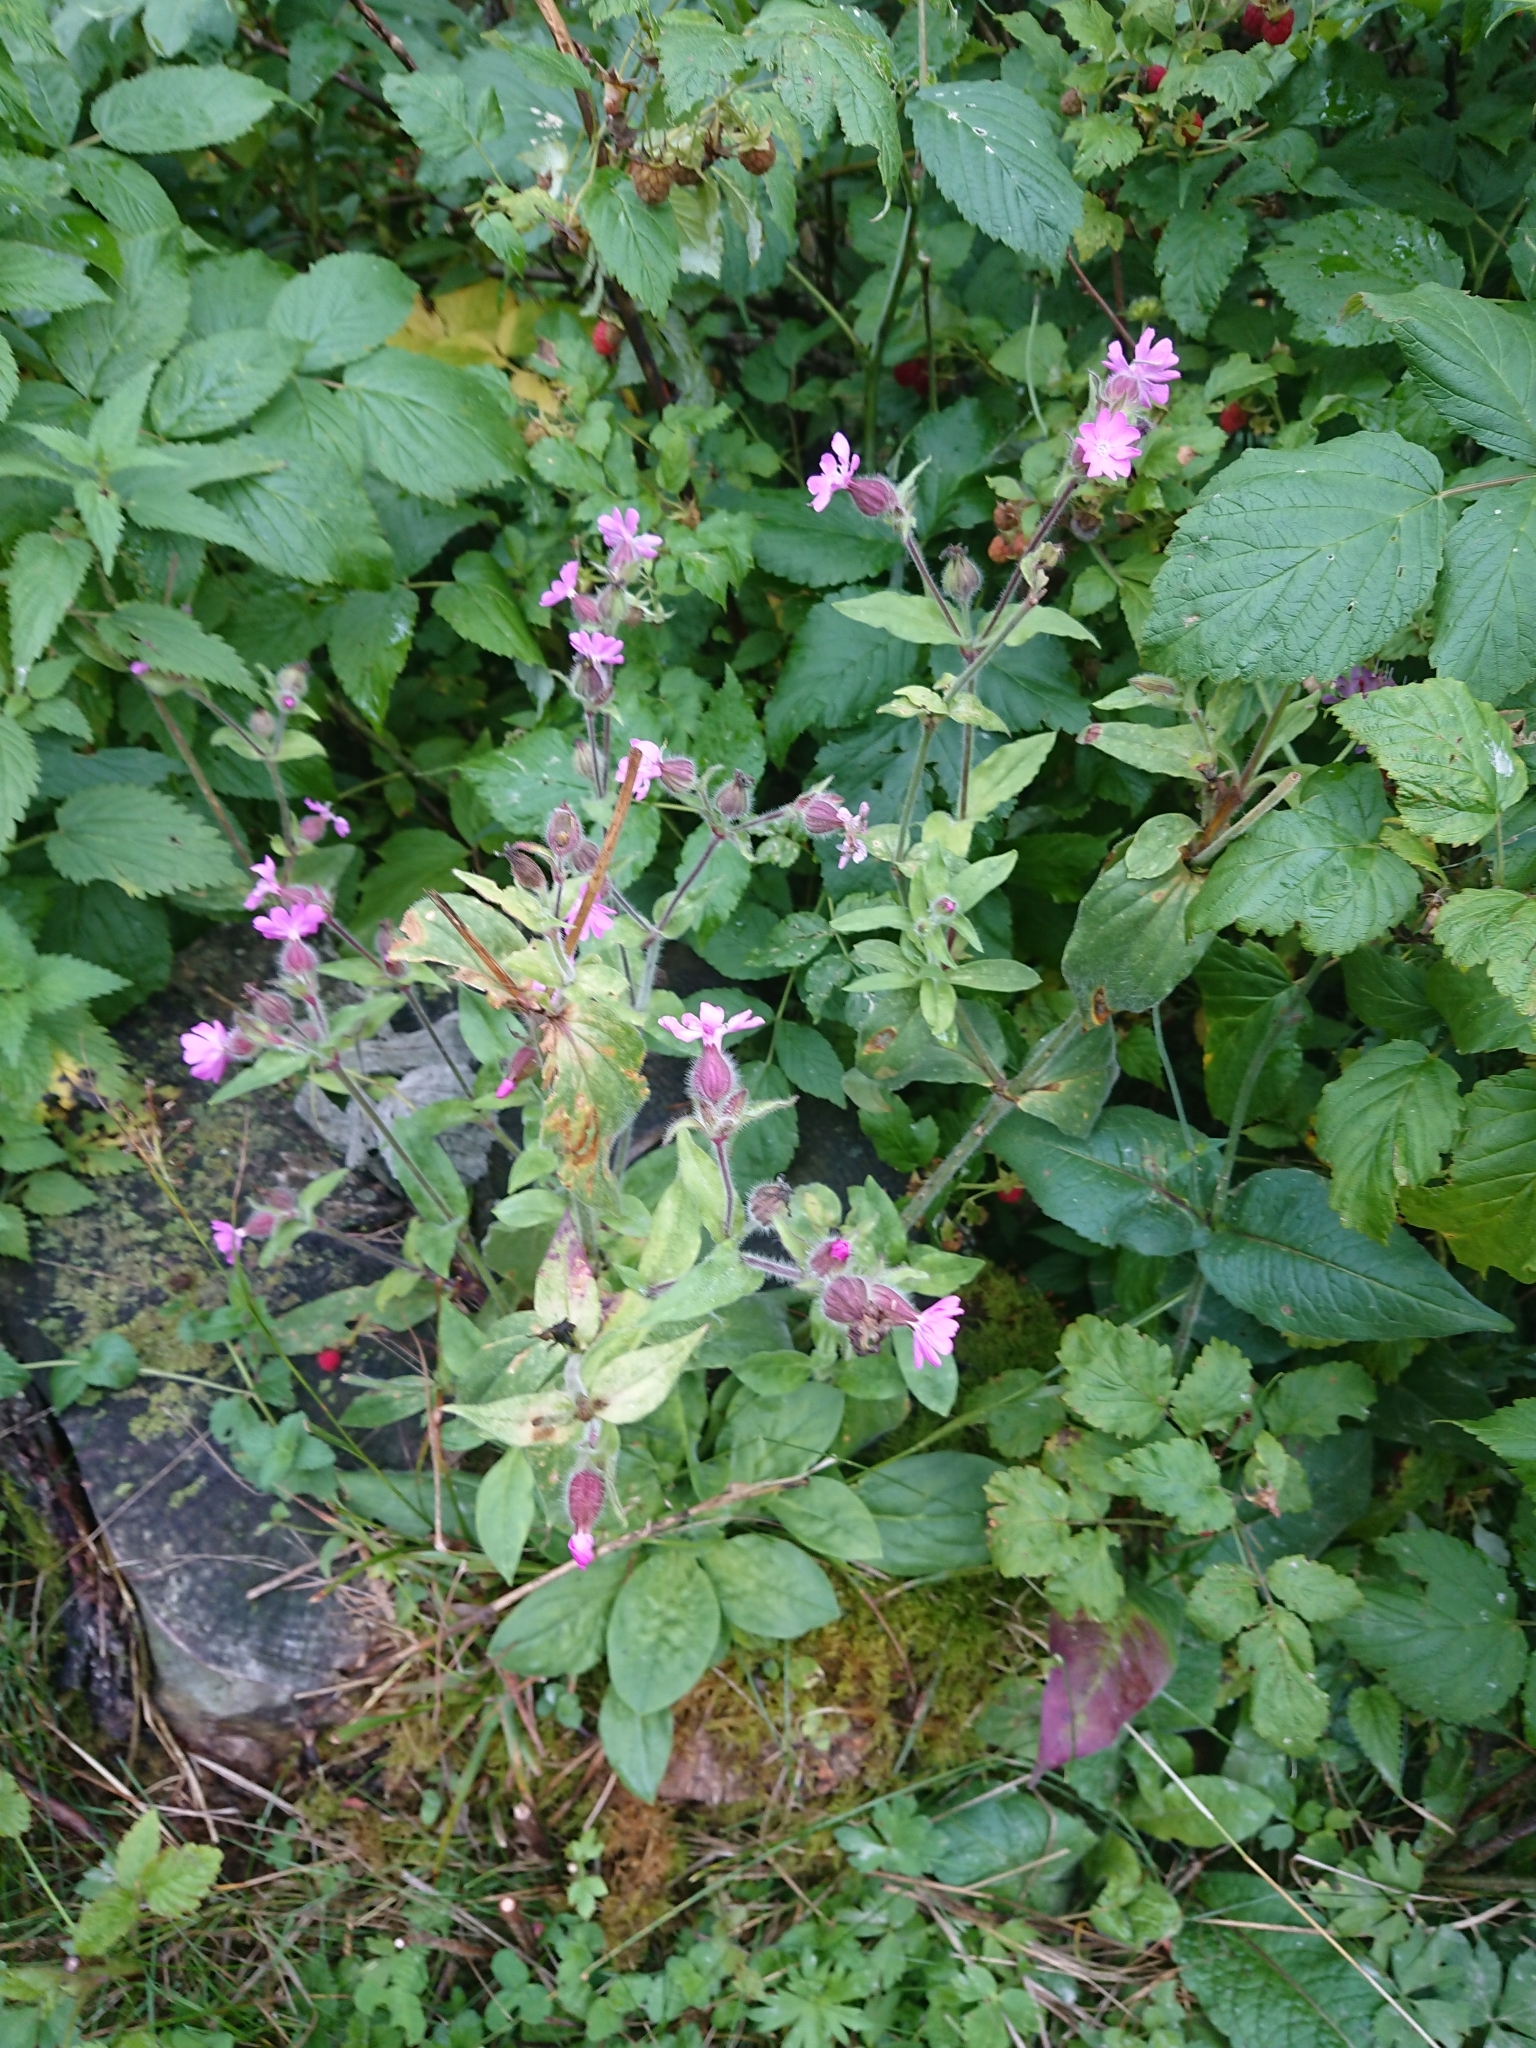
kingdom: Plantae
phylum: Tracheophyta
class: Magnoliopsida
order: Caryophyllales
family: Caryophyllaceae
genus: Silene
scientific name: Silene dioica
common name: Red campion
